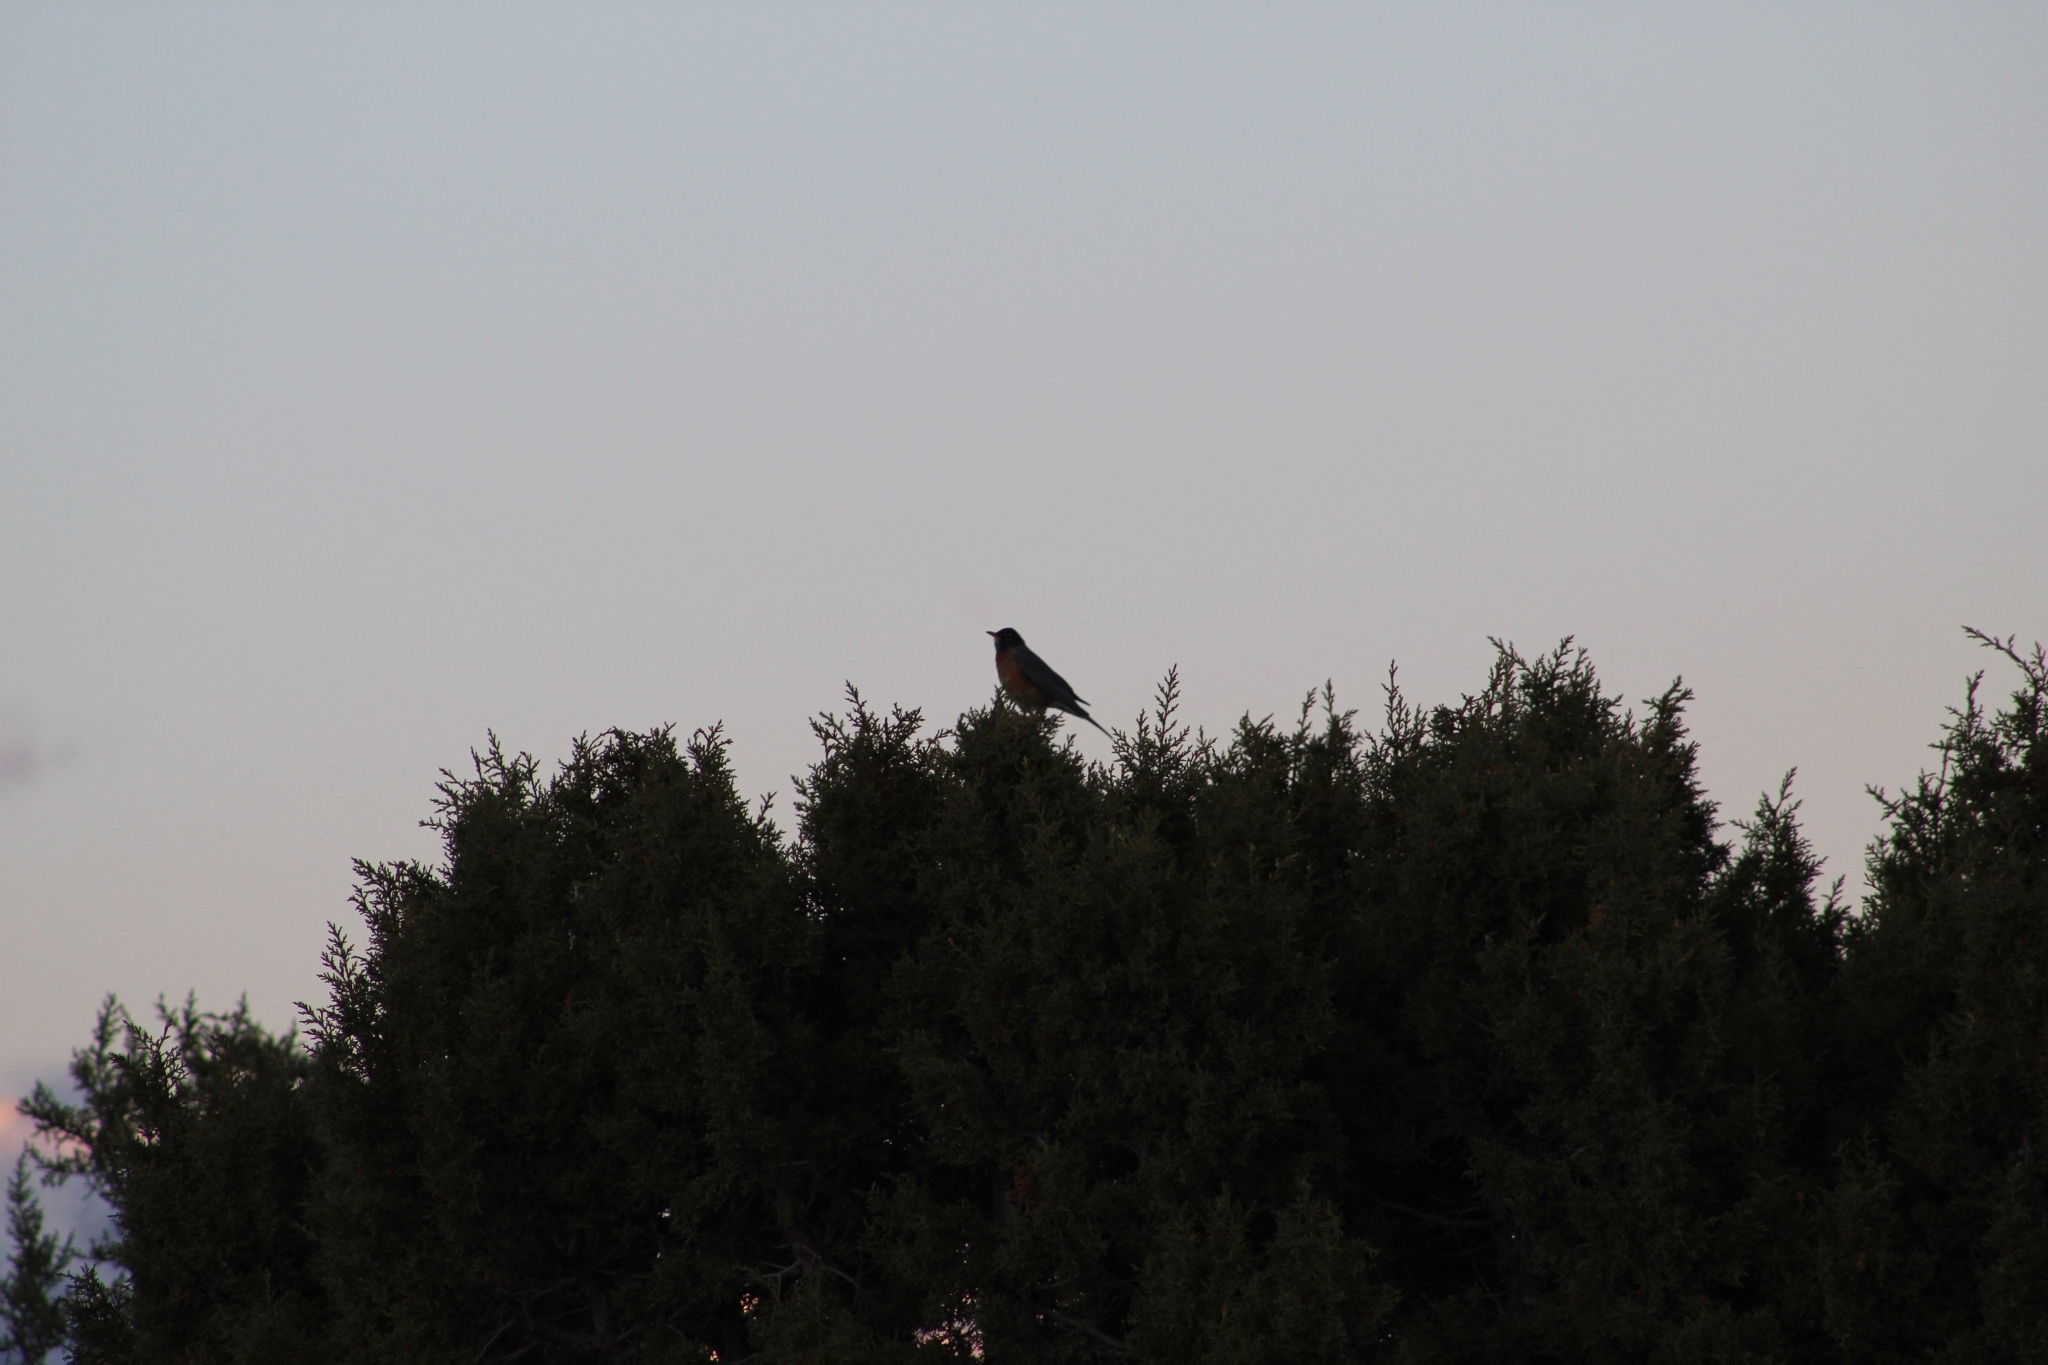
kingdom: Animalia
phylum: Chordata
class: Aves
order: Passeriformes
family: Turdidae
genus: Turdus
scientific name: Turdus migratorius
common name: American robin
